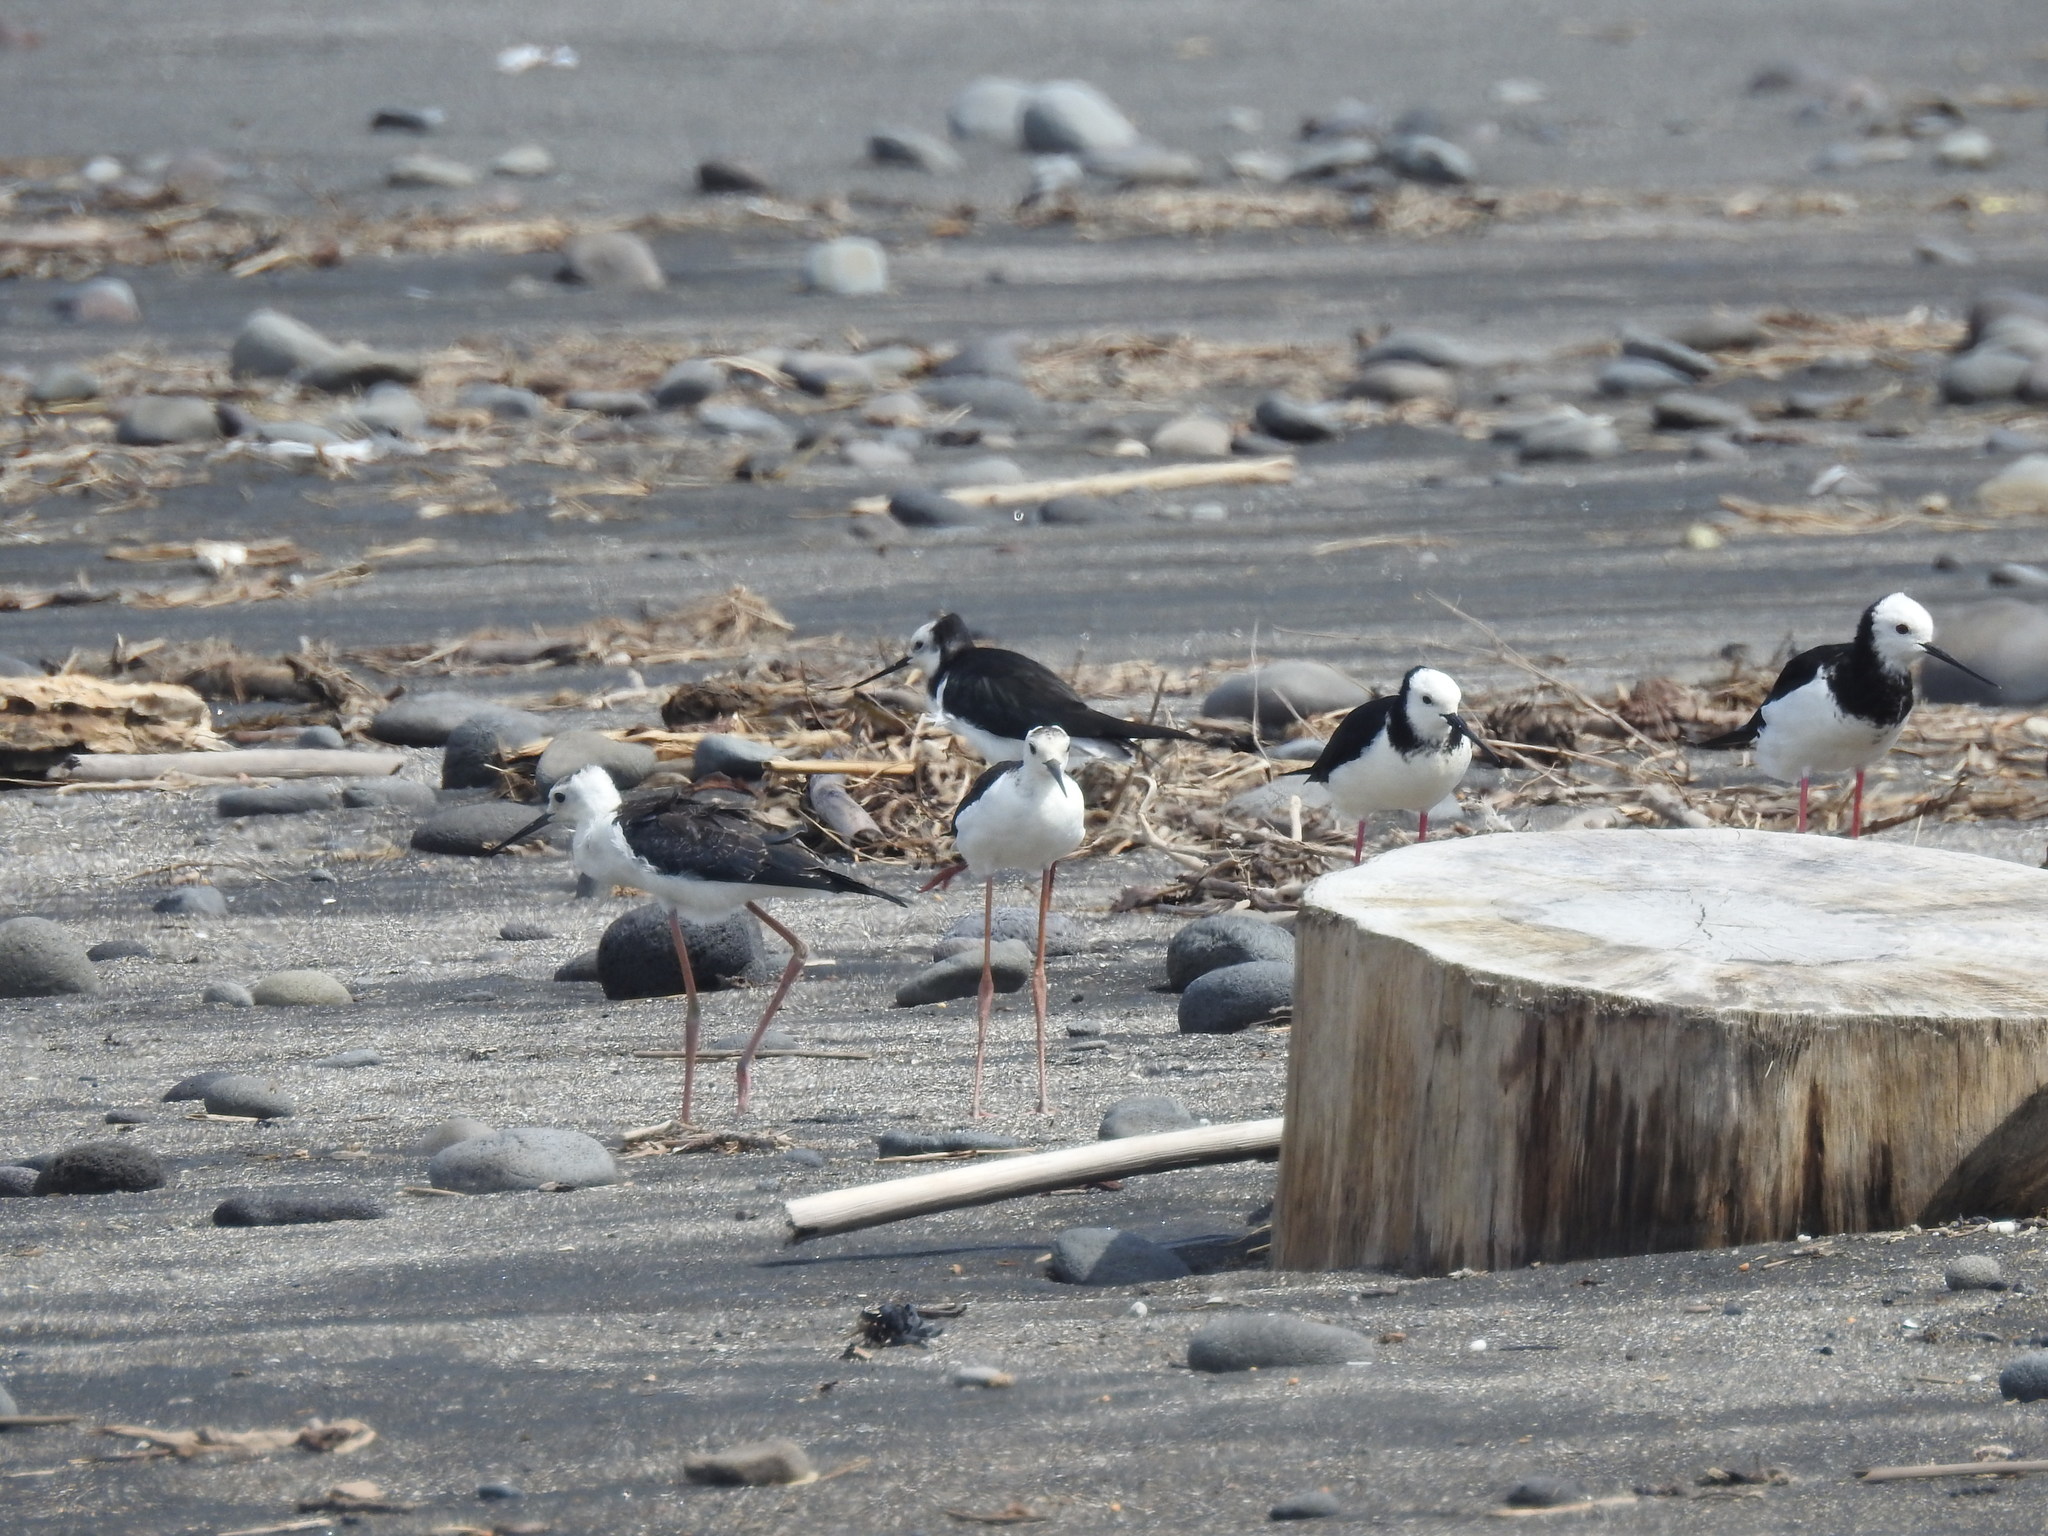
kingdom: Animalia
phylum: Chordata
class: Aves
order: Charadriiformes
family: Recurvirostridae
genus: Himantopus
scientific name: Himantopus leucocephalus
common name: White-headed stilt
